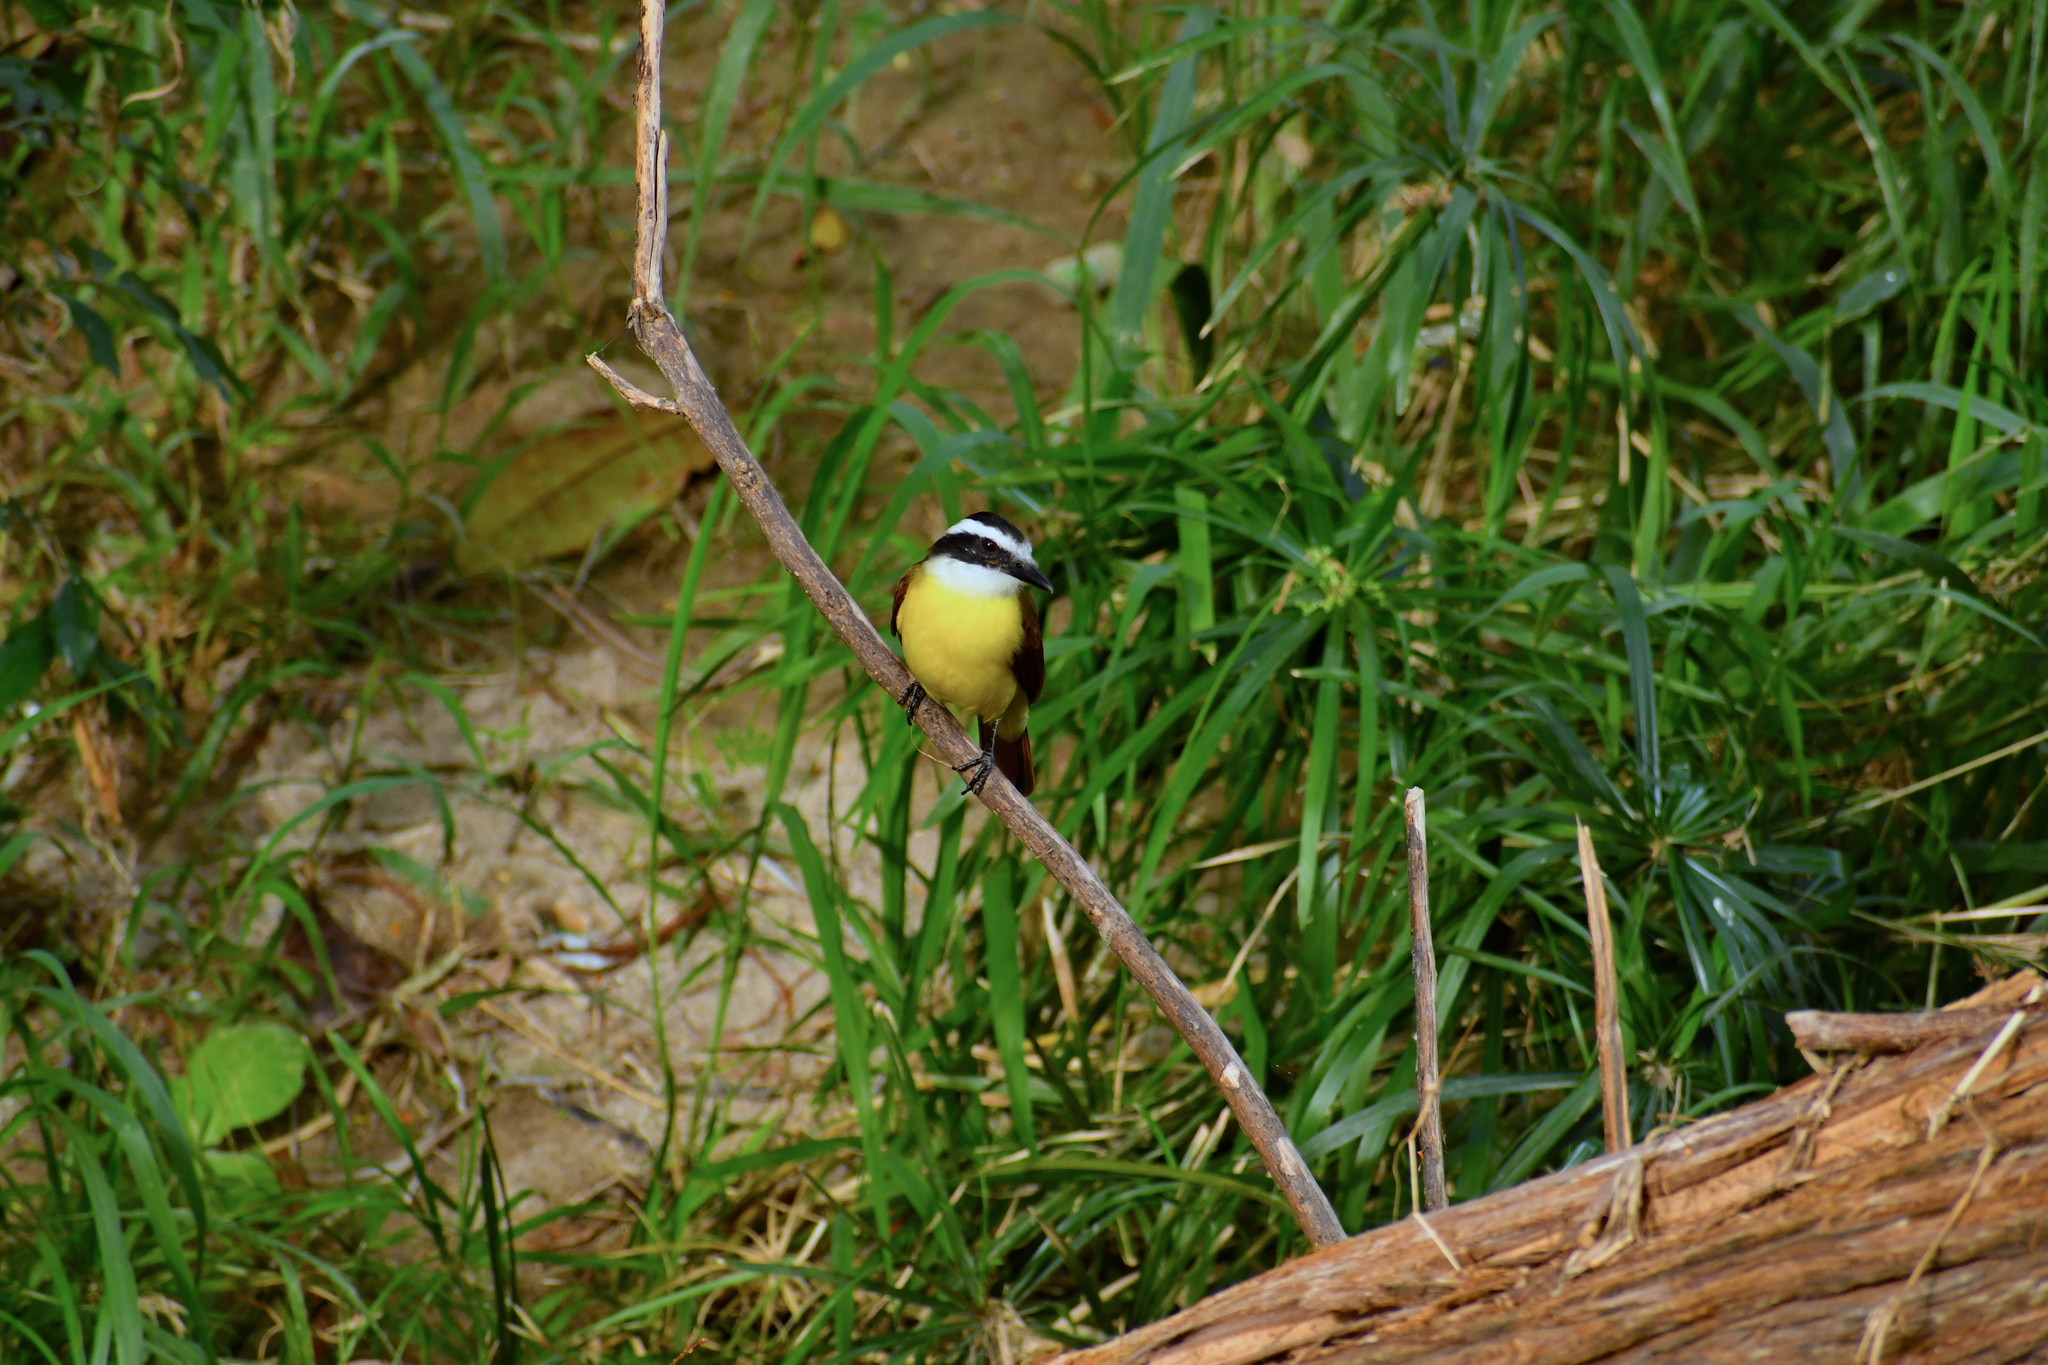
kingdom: Animalia
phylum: Chordata
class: Aves
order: Passeriformes
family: Tyrannidae
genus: Pitangus
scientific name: Pitangus sulphuratus
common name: Great kiskadee
